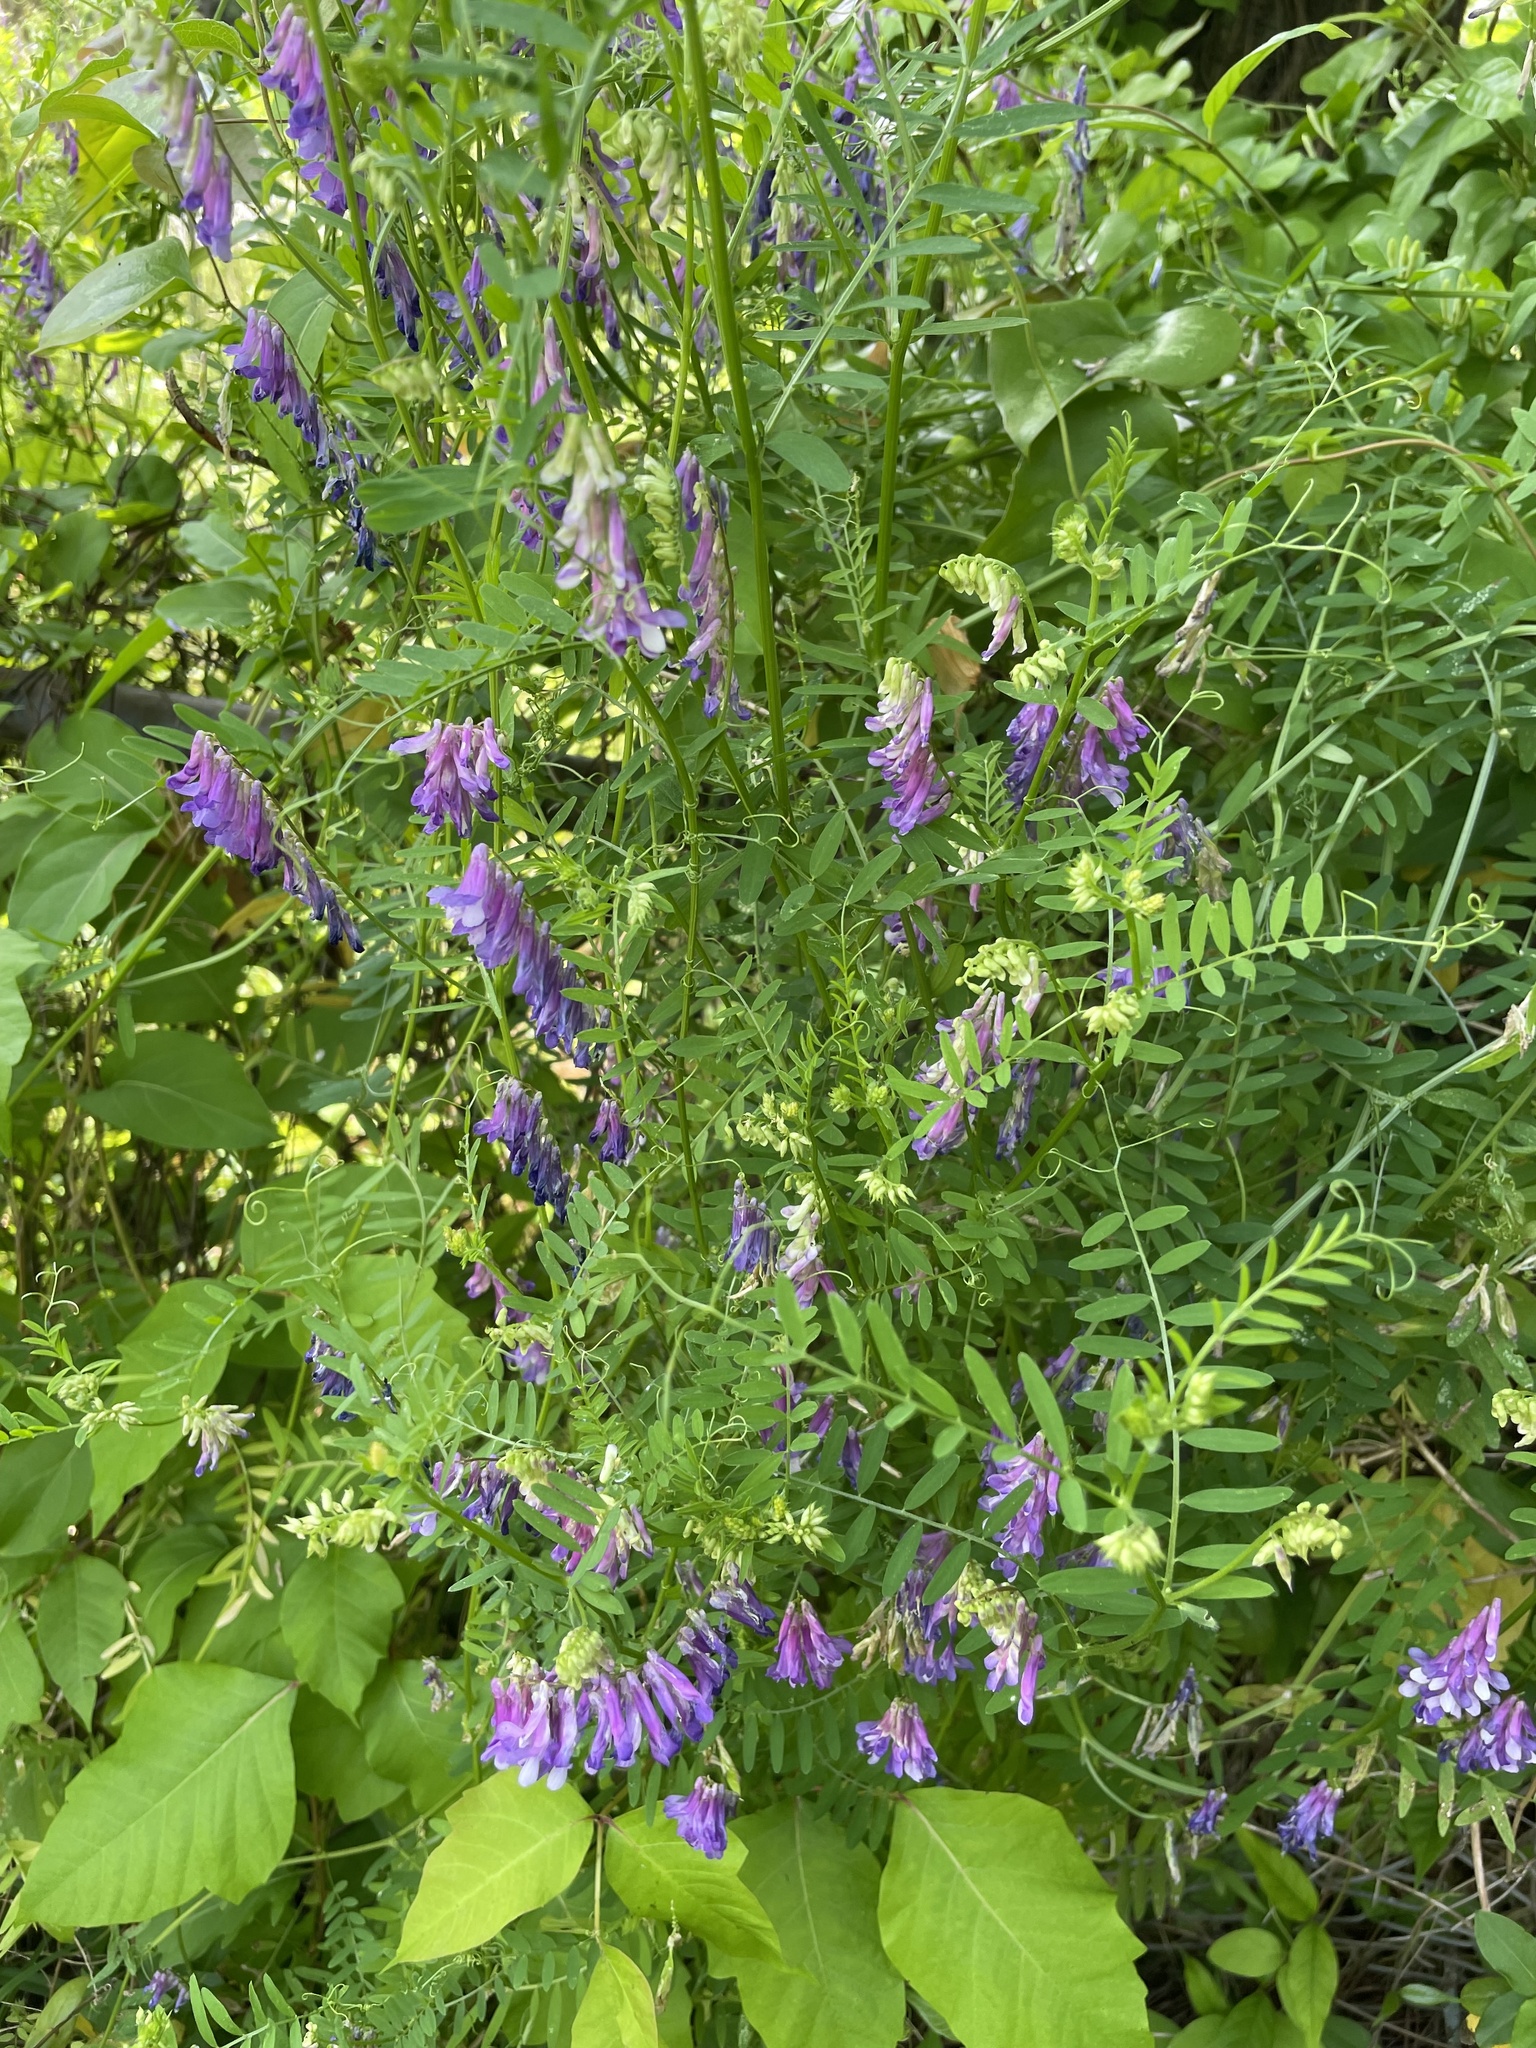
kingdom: Plantae
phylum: Tracheophyta
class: Magnoliopsida
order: Fabales
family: Fabaceae
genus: Vicia
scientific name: Vicia villosa
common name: Fodder vetch
